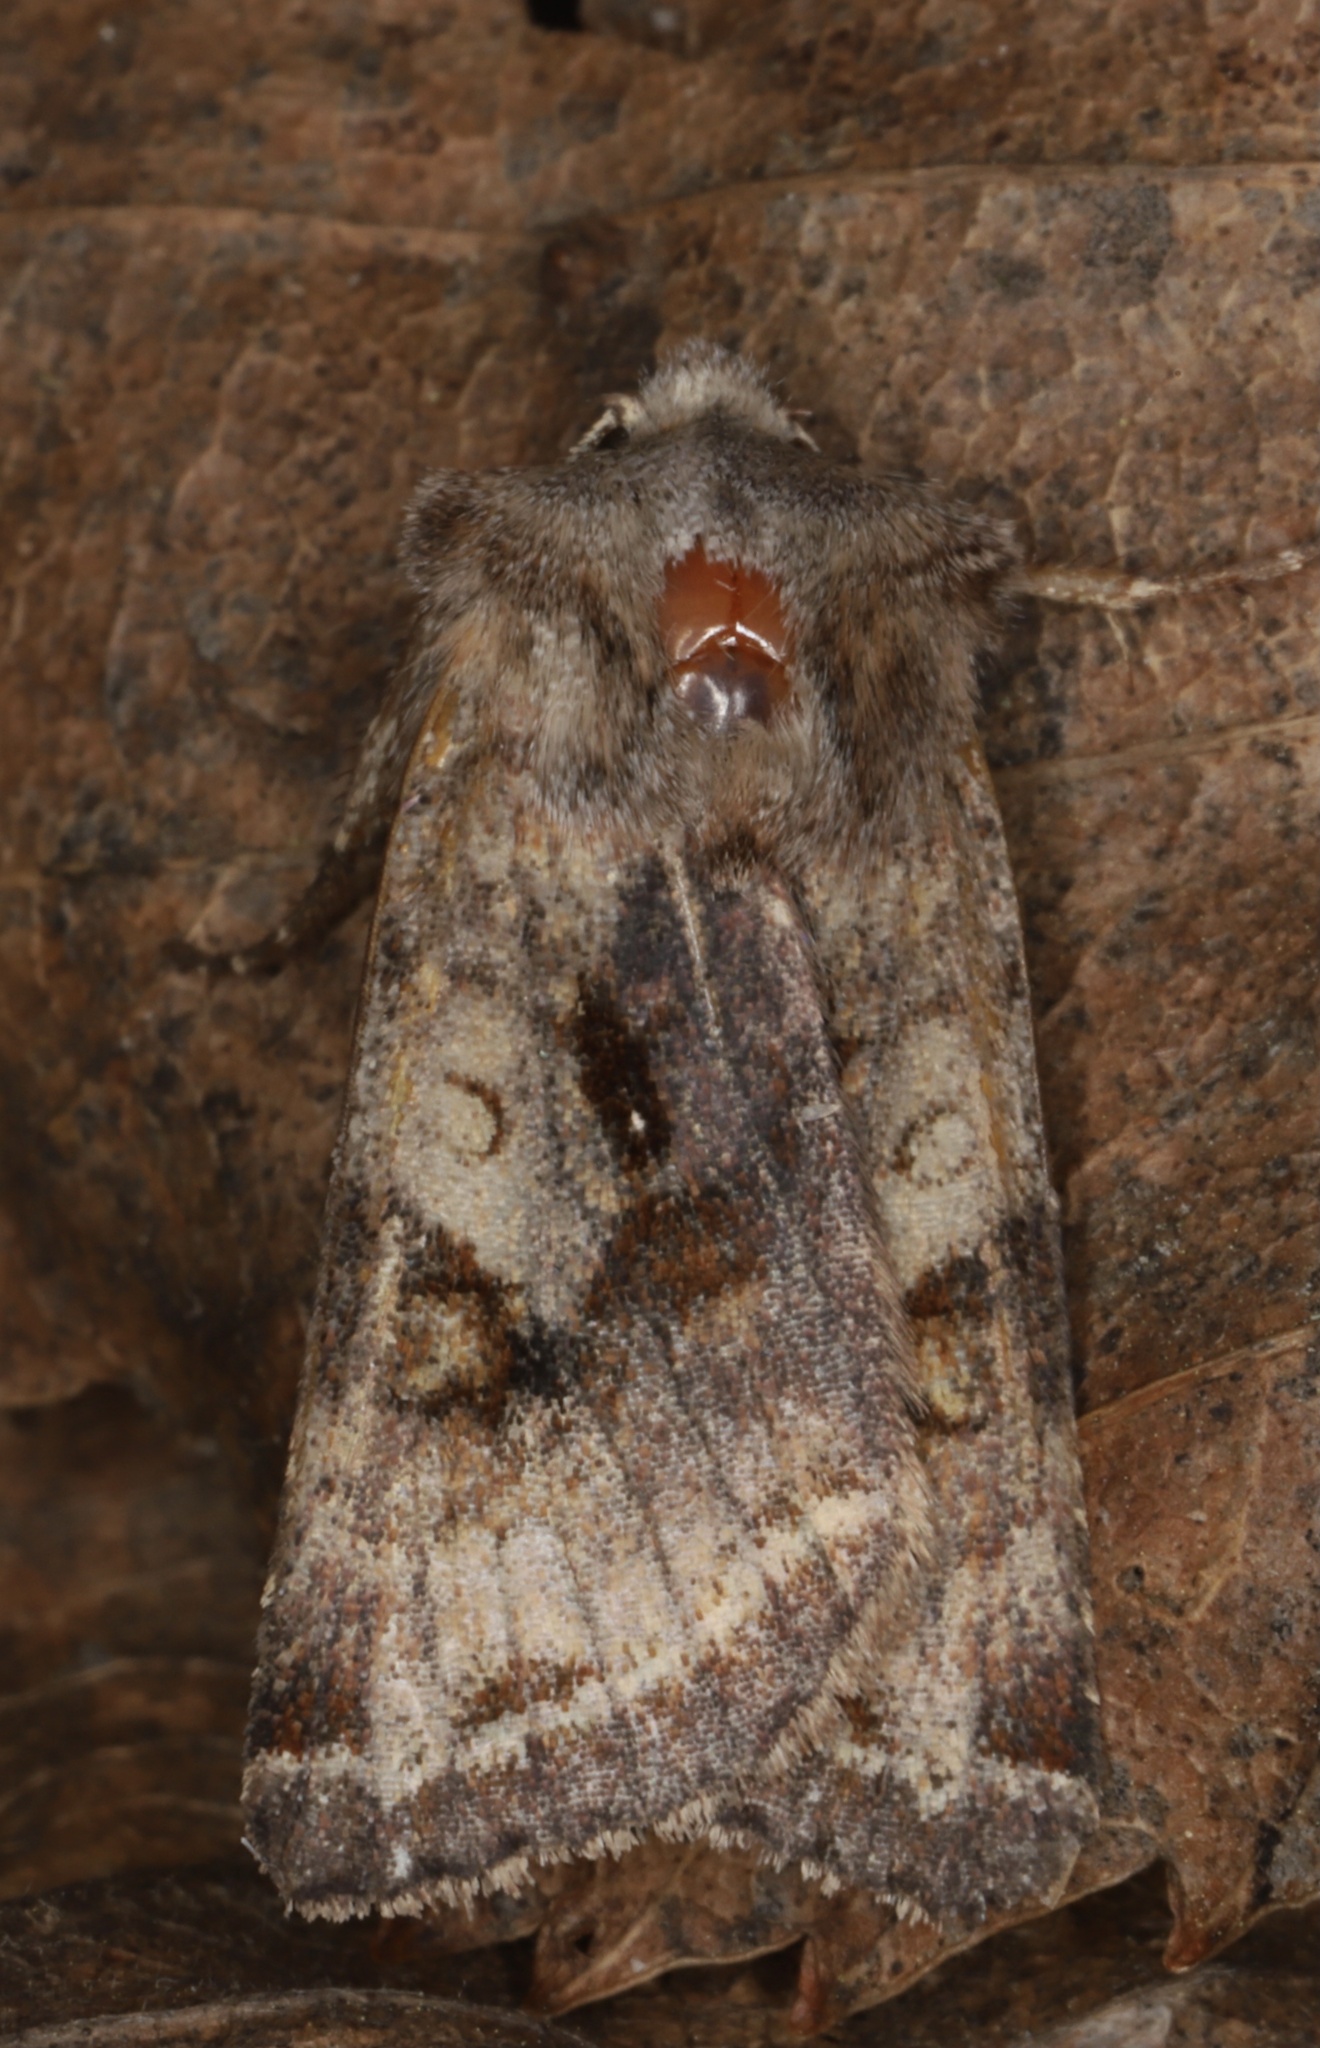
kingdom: Animalia
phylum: Arthropoda
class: Insecta
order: Lepidoptera
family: Noctuidae
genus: Cerastis
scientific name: Cerastis salicarum
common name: Willow dart
